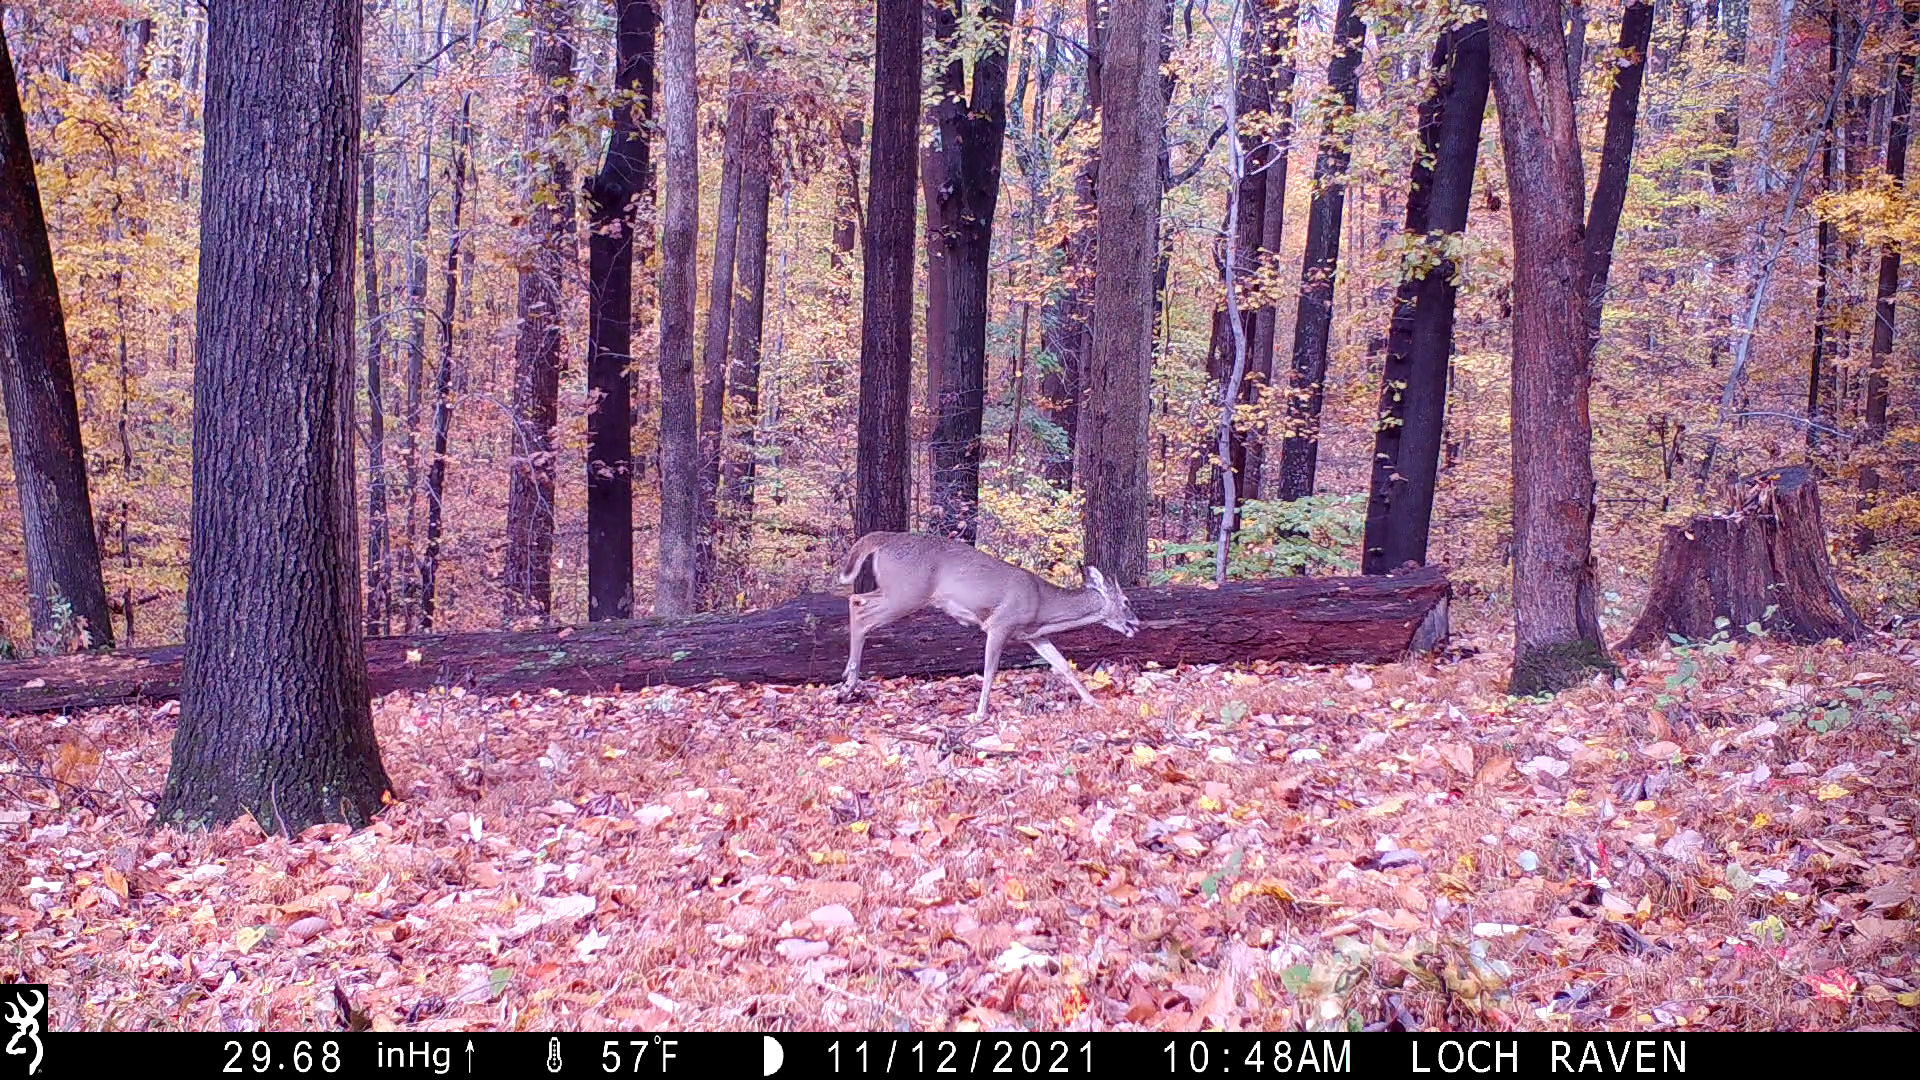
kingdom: Animalia
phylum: Chordata
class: Mammalia
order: Artiodactyla
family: Cervidae
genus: Odocoileus
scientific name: Odocoileus virginianus
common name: White-tailed deer
